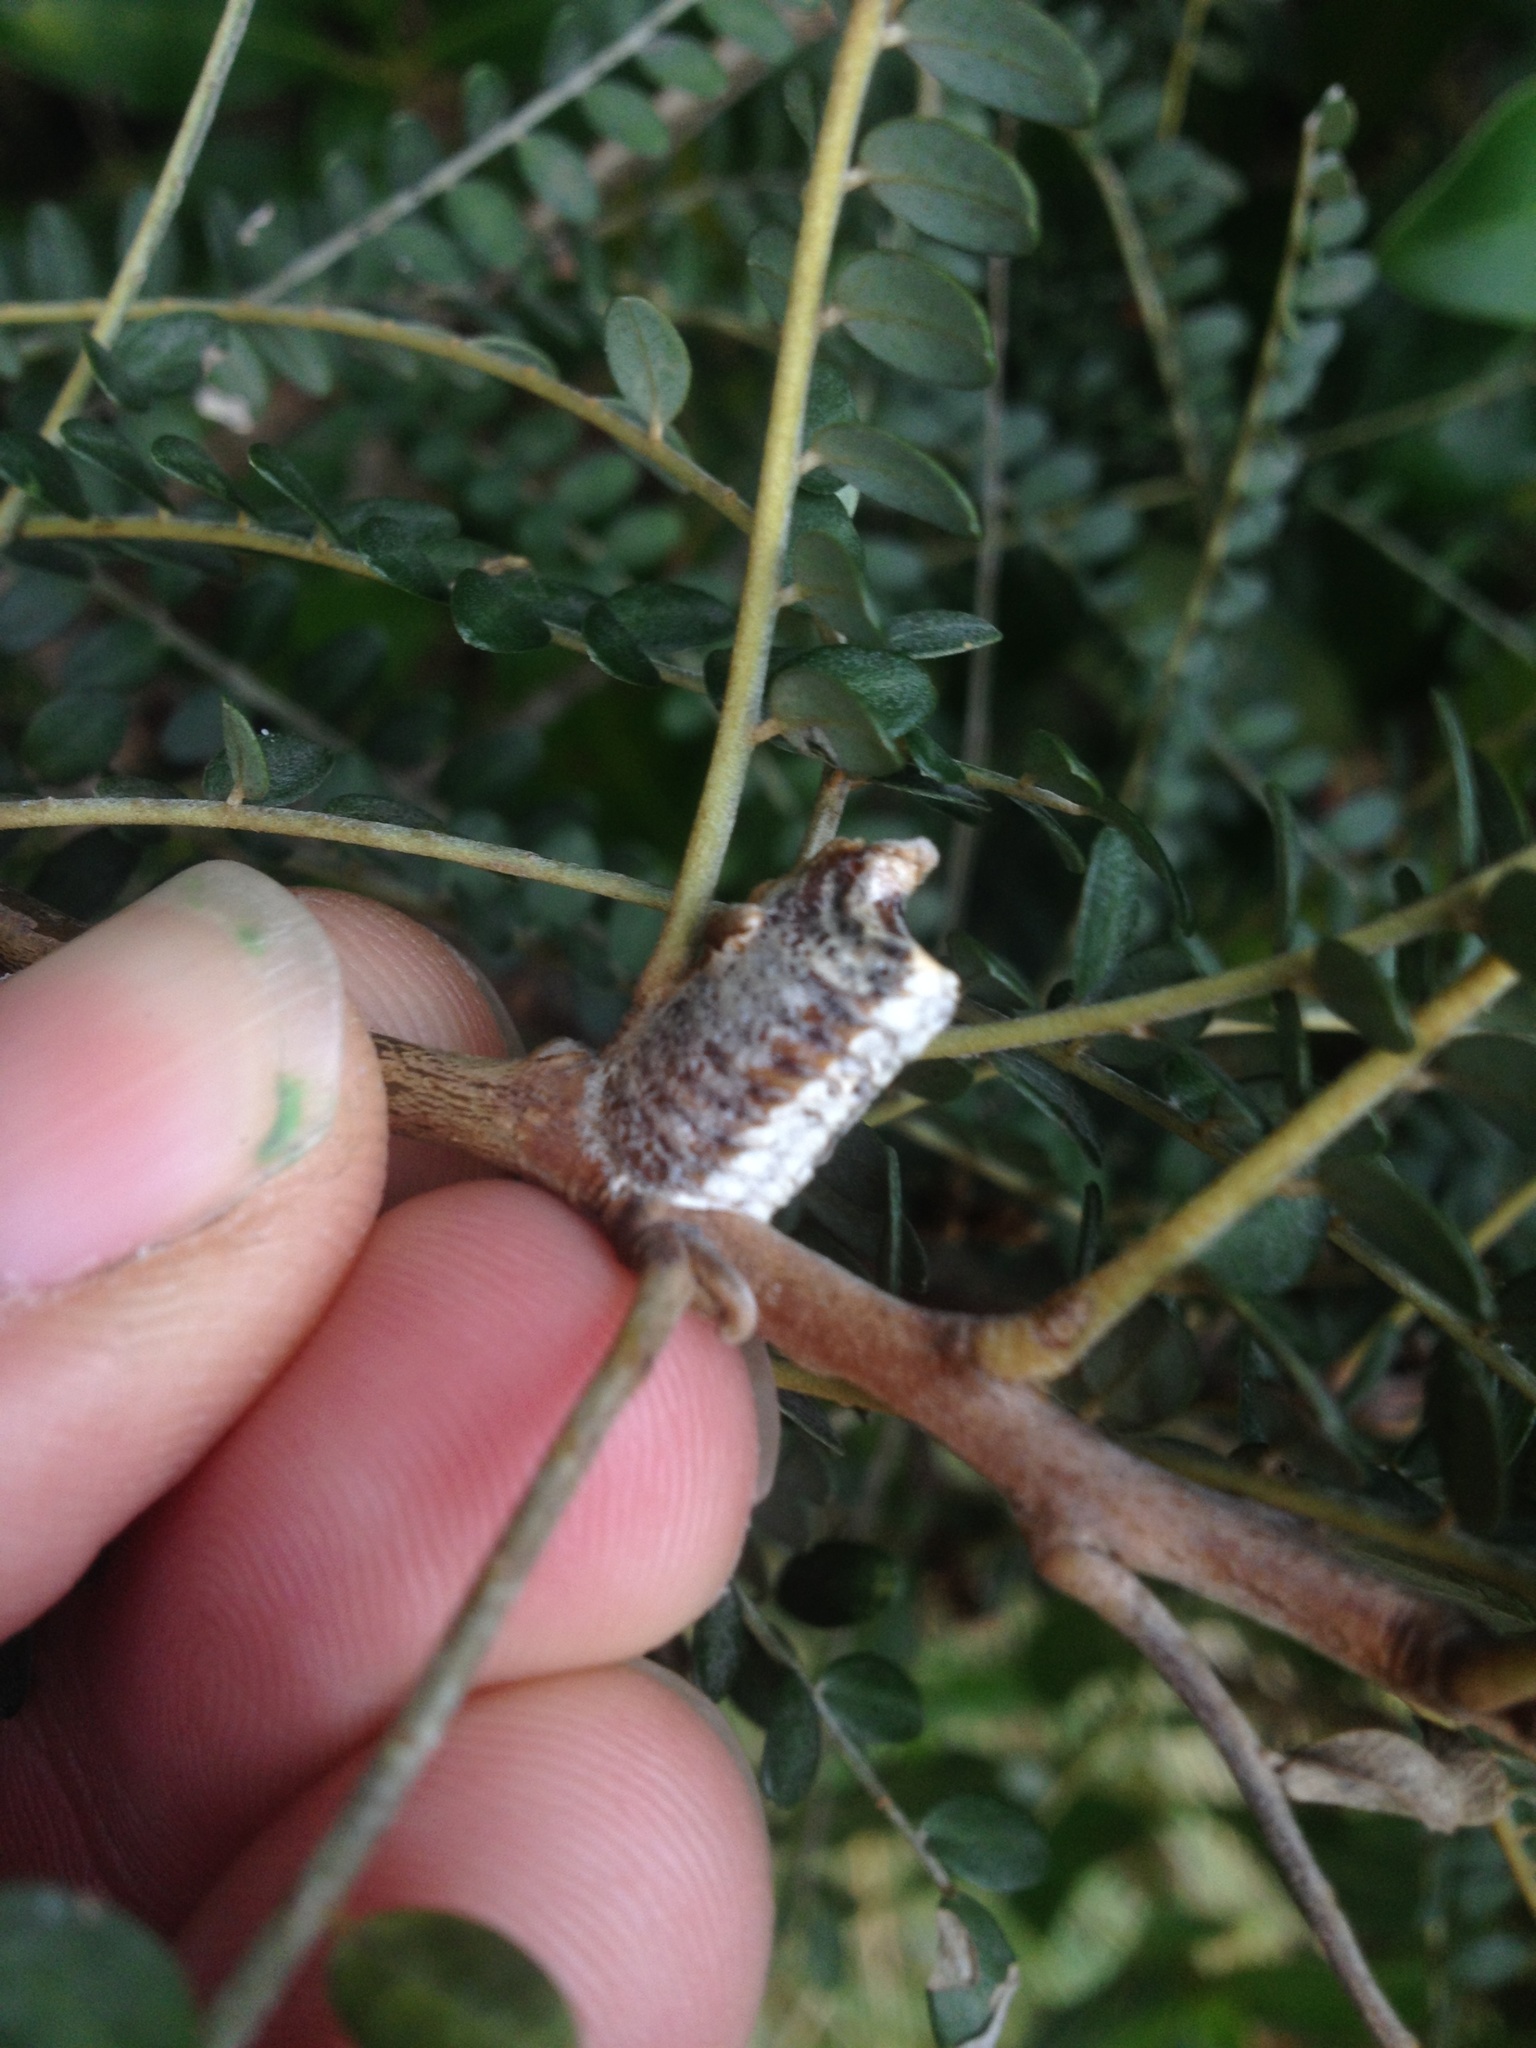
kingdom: Animalia
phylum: Arthropoda
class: Insecta
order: Mantodea
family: Mantidae
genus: Orthodera
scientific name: Orthodera novaezealandiae
